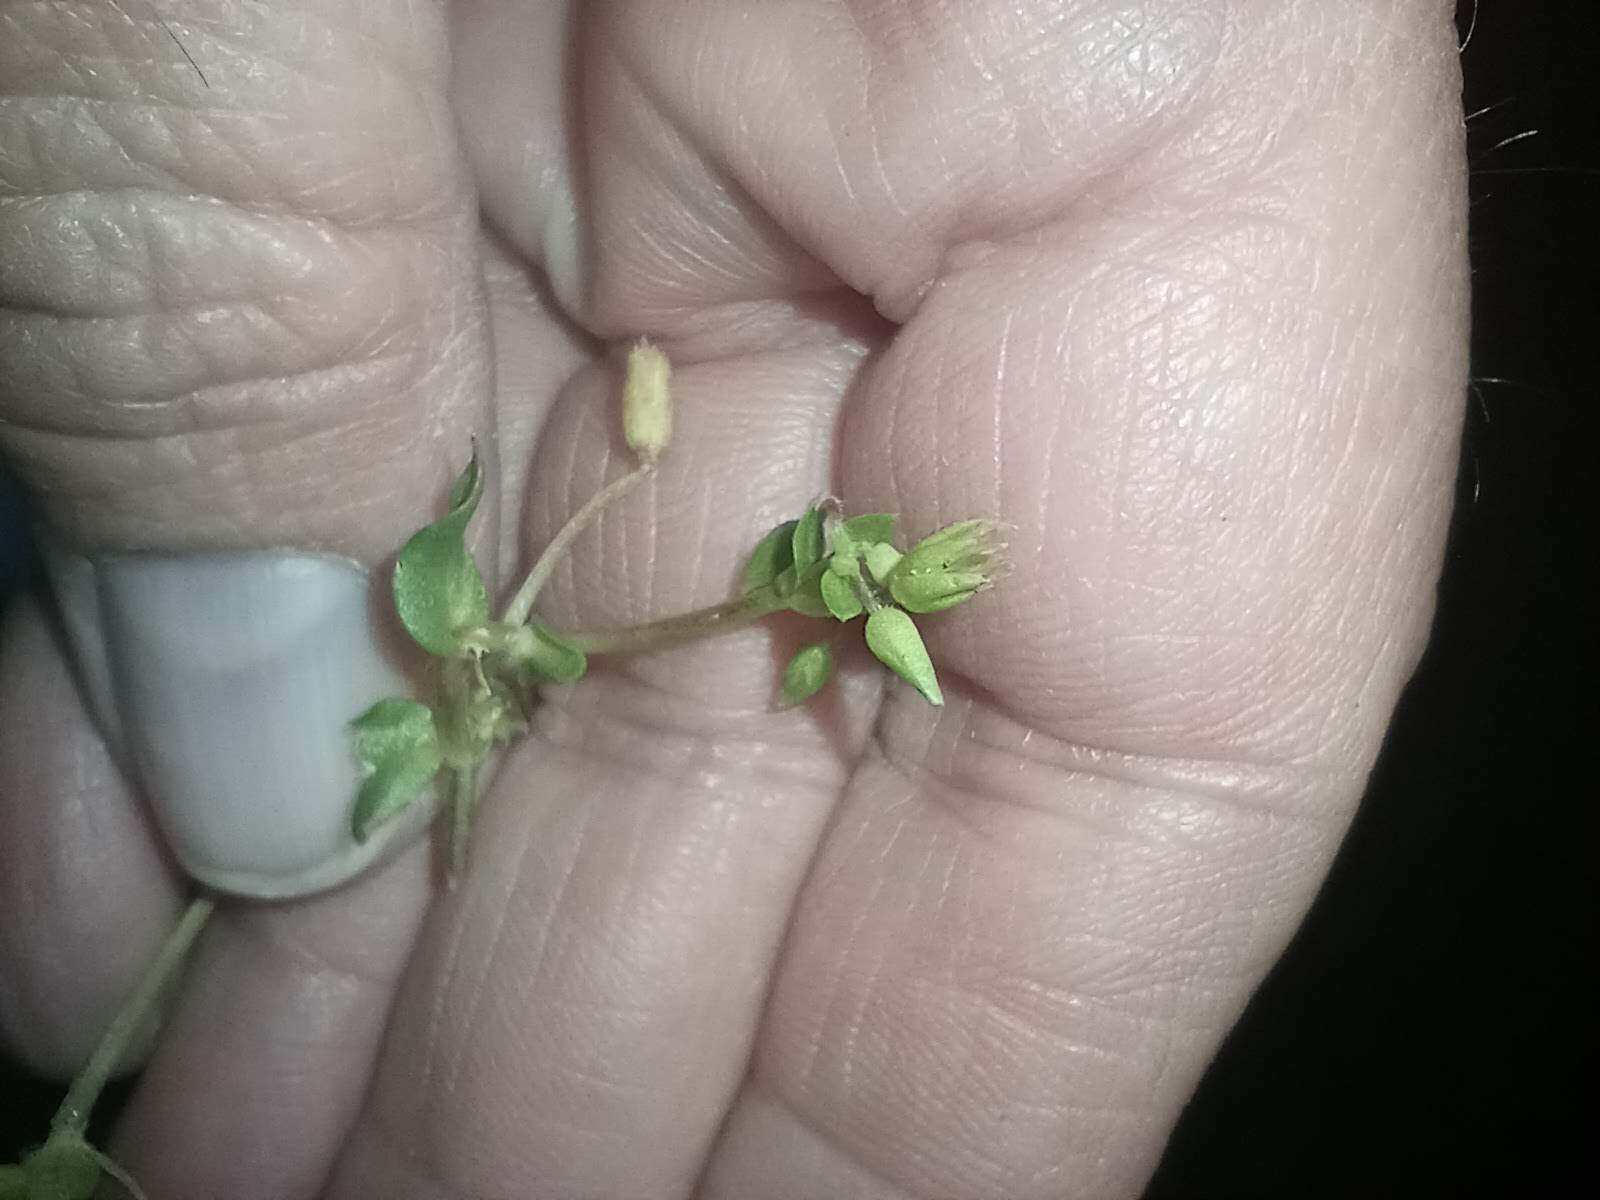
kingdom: Plantae
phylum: Tracheophyta
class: Magnoliopsida
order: Caryophyllales
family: Caryophyllaceae
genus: Stellaria
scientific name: Stellaria media
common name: Common chickweed
